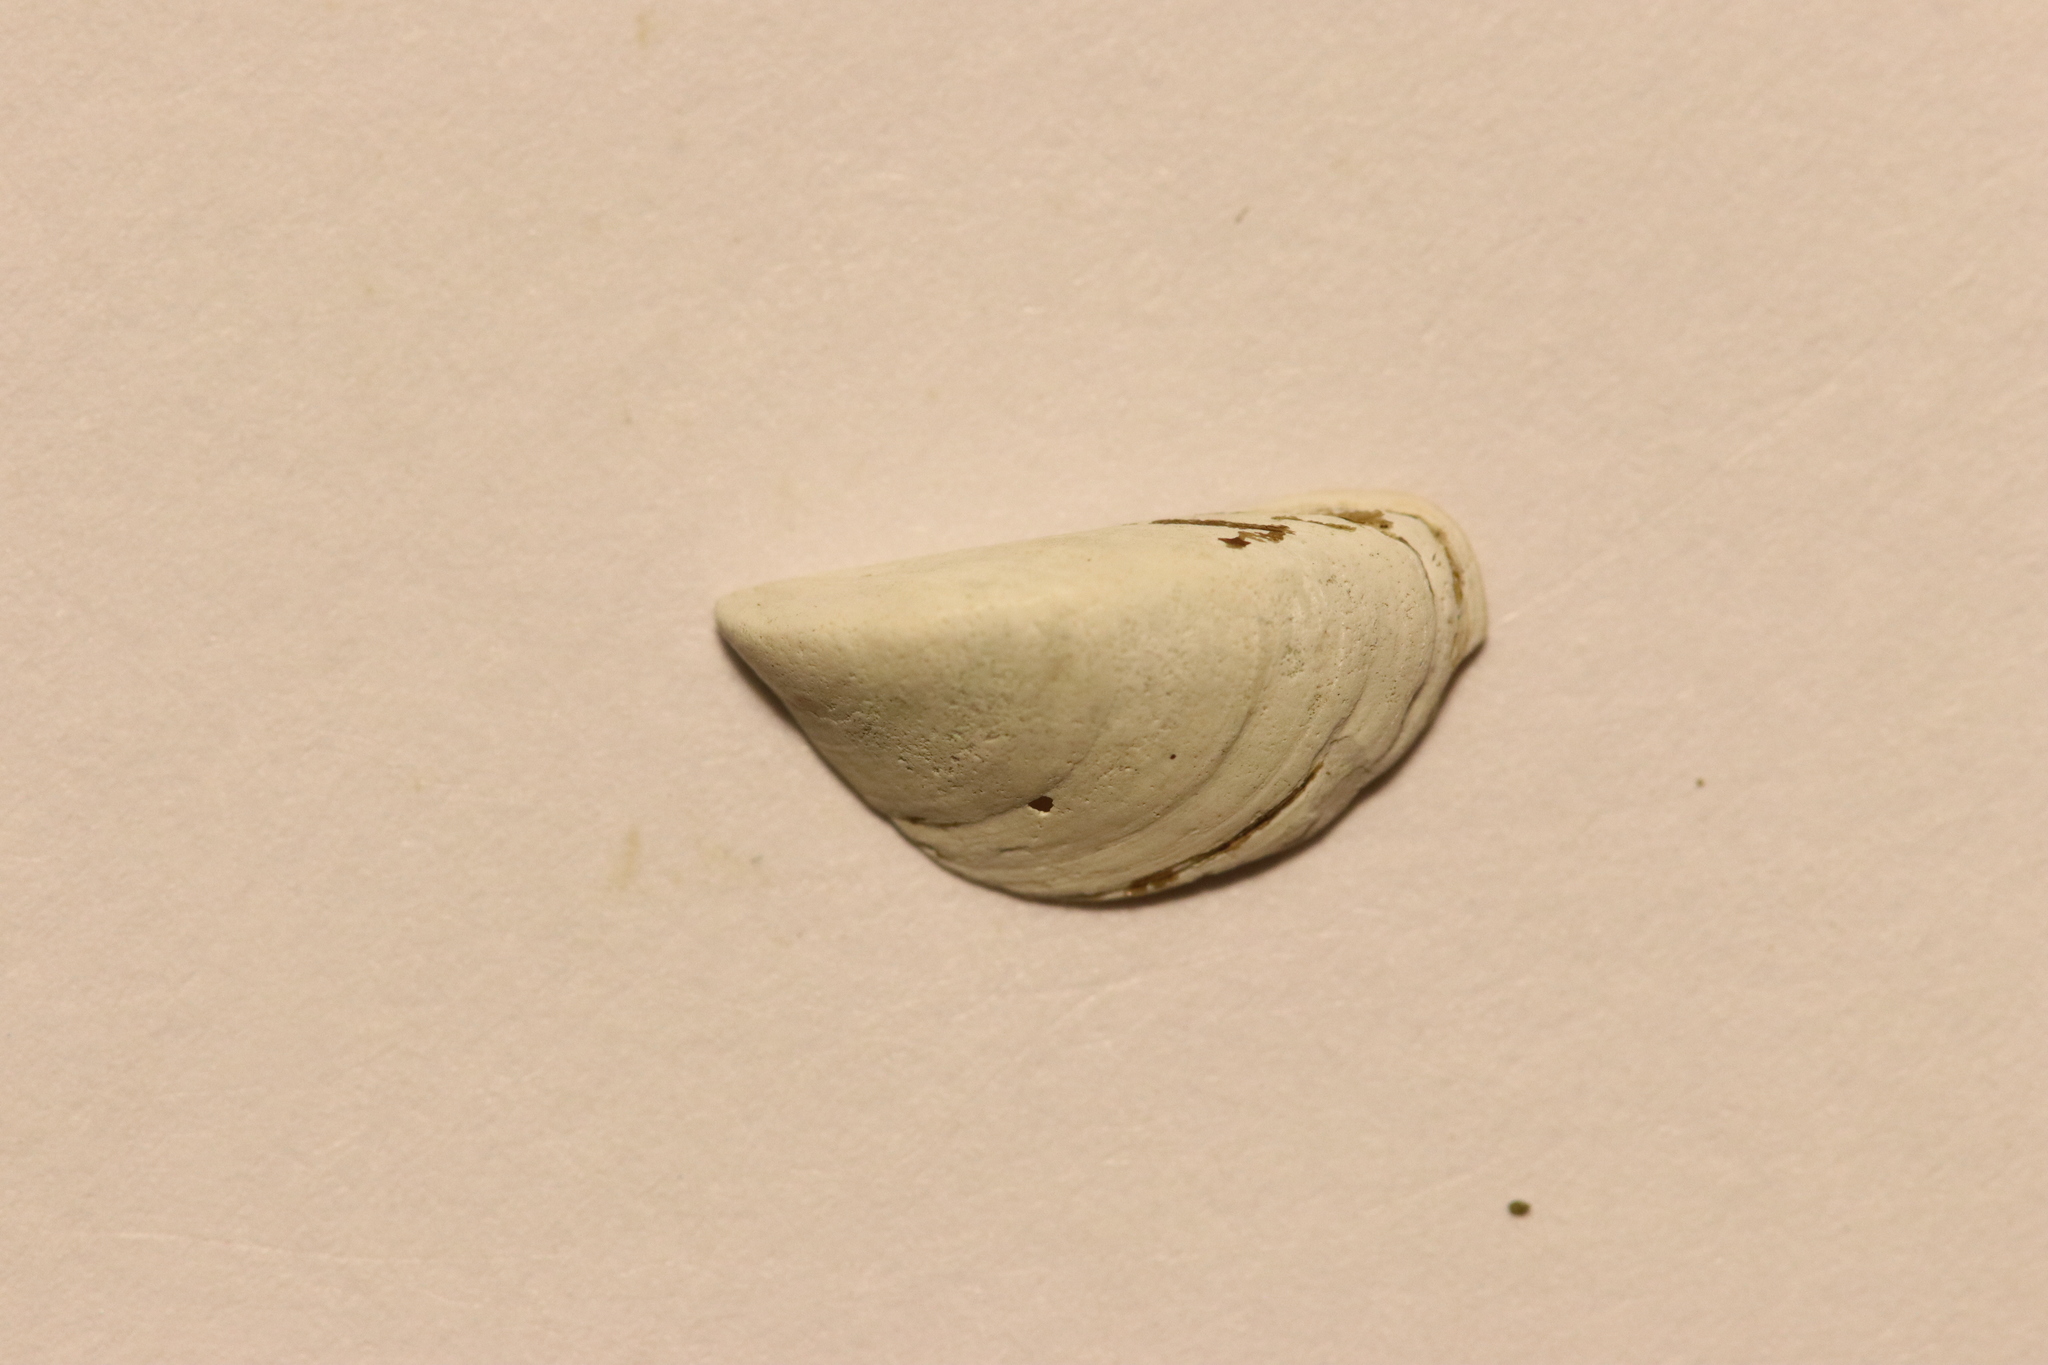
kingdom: Animalia
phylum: Mollusca
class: Bivalvia
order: Myida
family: Dreissenidae
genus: Dreissena
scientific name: Dreissena polymorpha
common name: Zebra mussel
